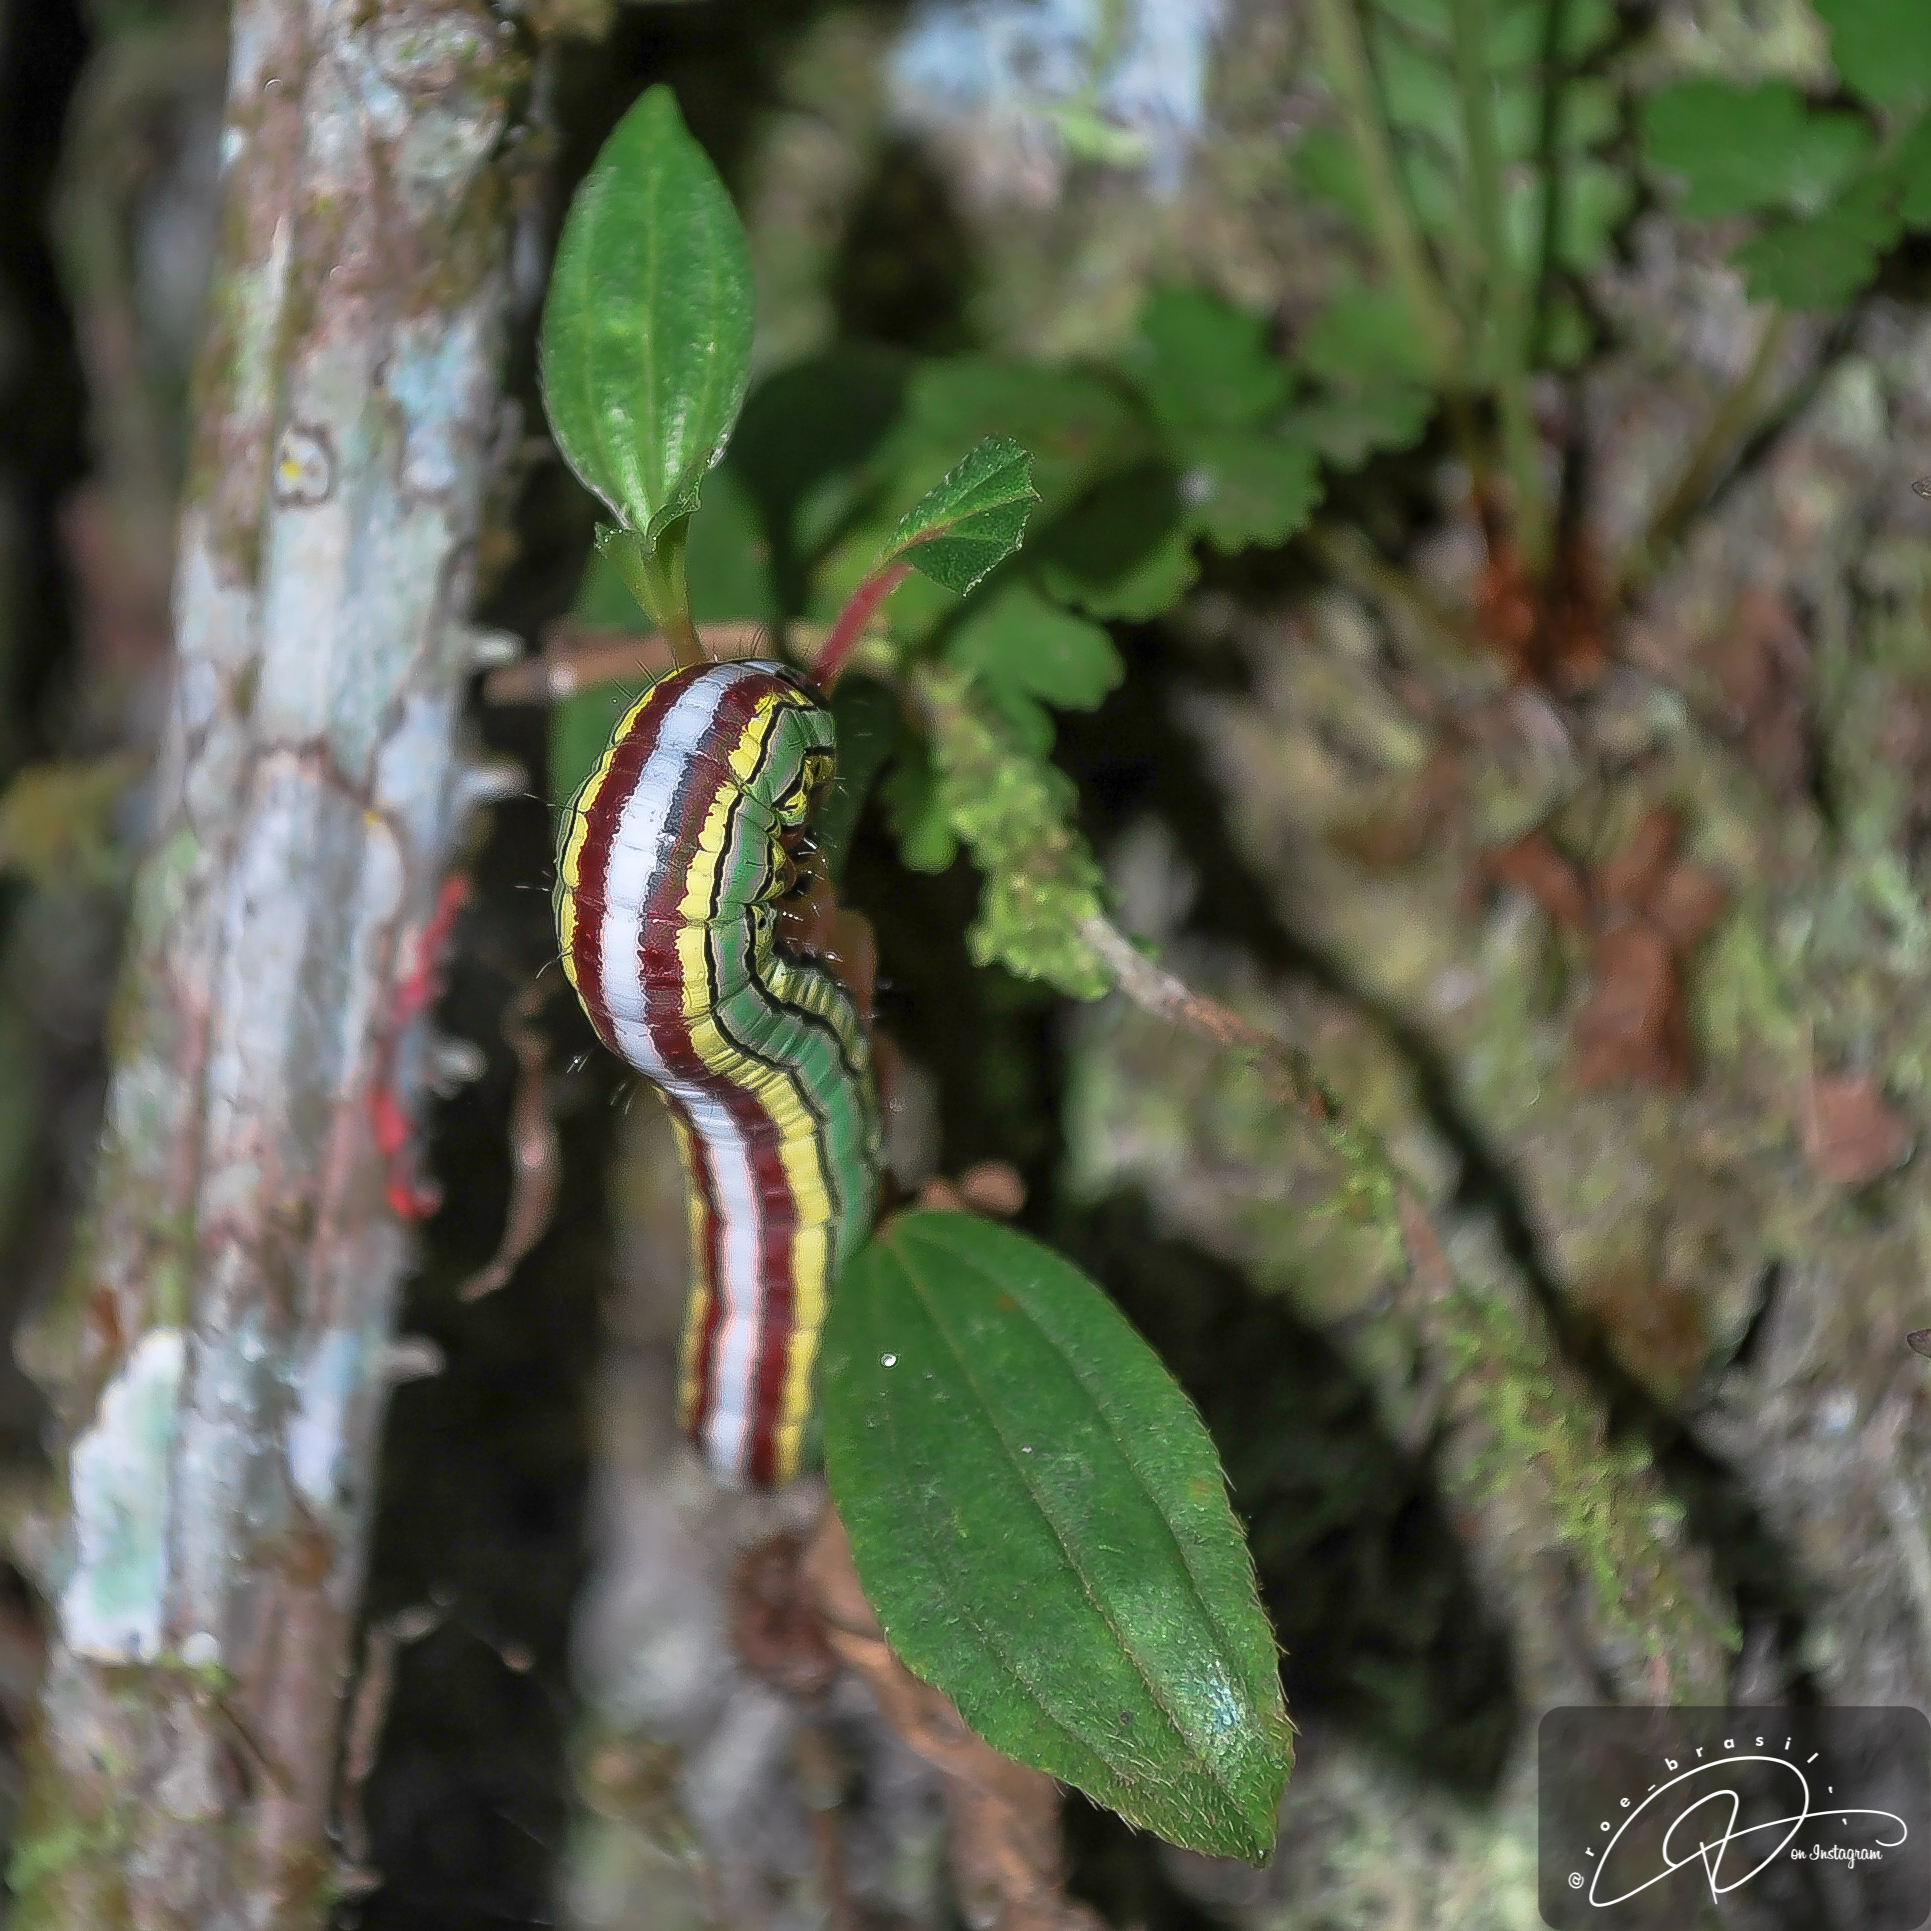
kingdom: Animalia
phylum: Arthropoda
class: Insecta
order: Lepidoptera
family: Notodontidae
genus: Antiora
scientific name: Antiora
